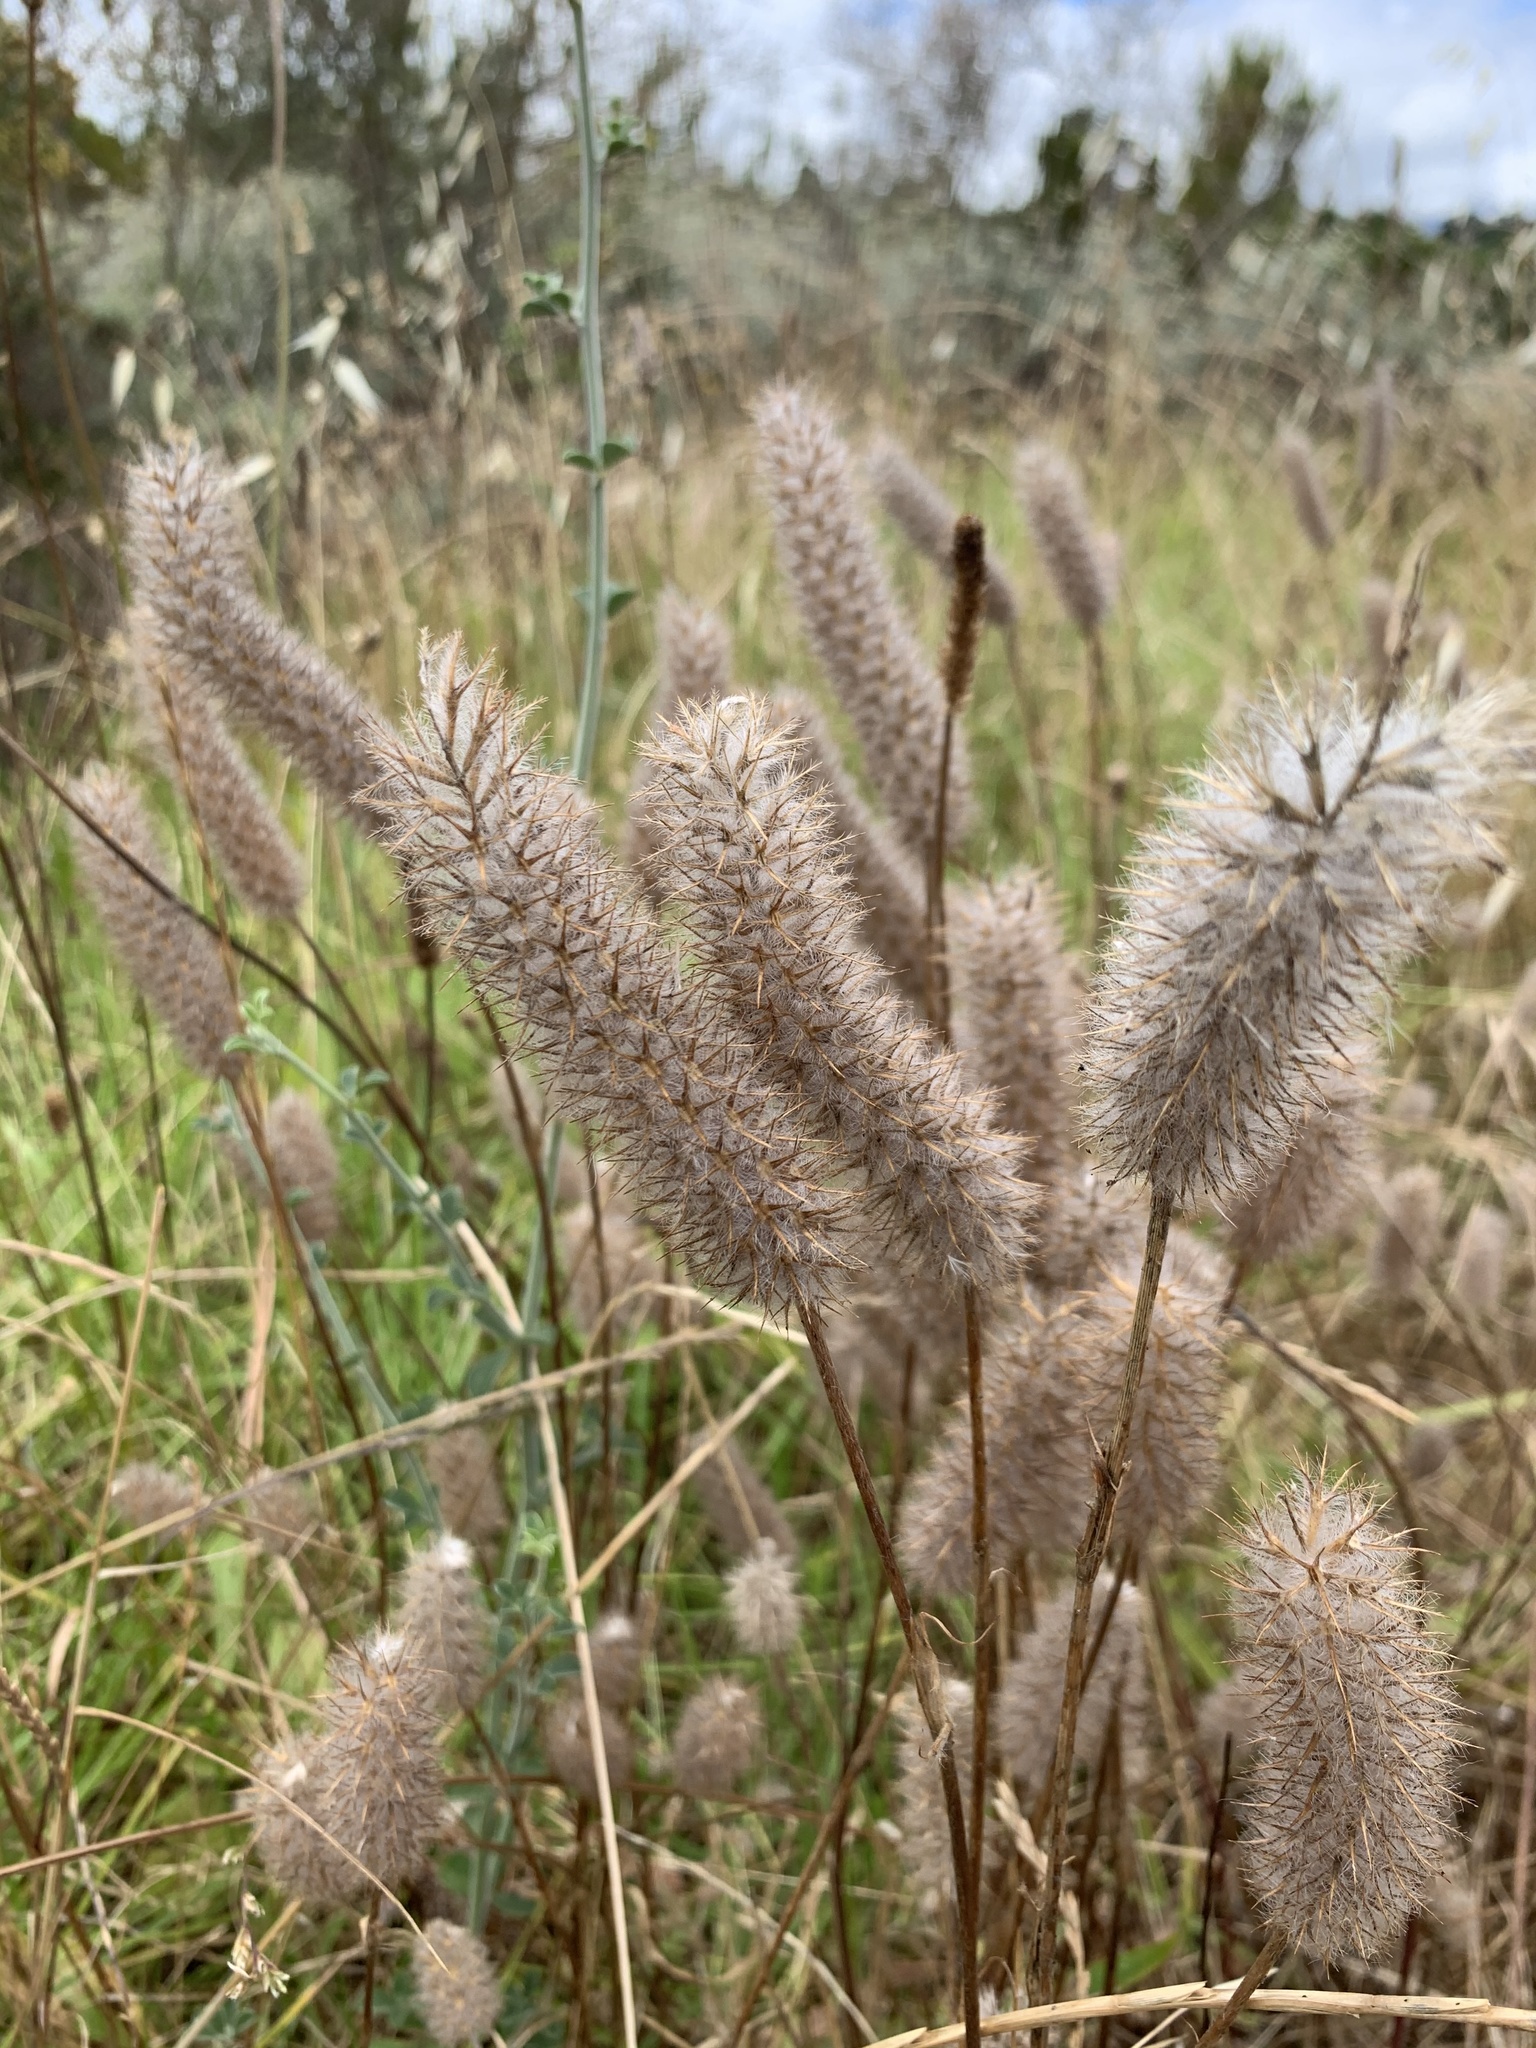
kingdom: Plantae
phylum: Tracheophyta
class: Magnoliopsida
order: Fabales
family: Fabaceae
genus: Trifolium
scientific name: Trifolium angustifolium
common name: Narrow clover
